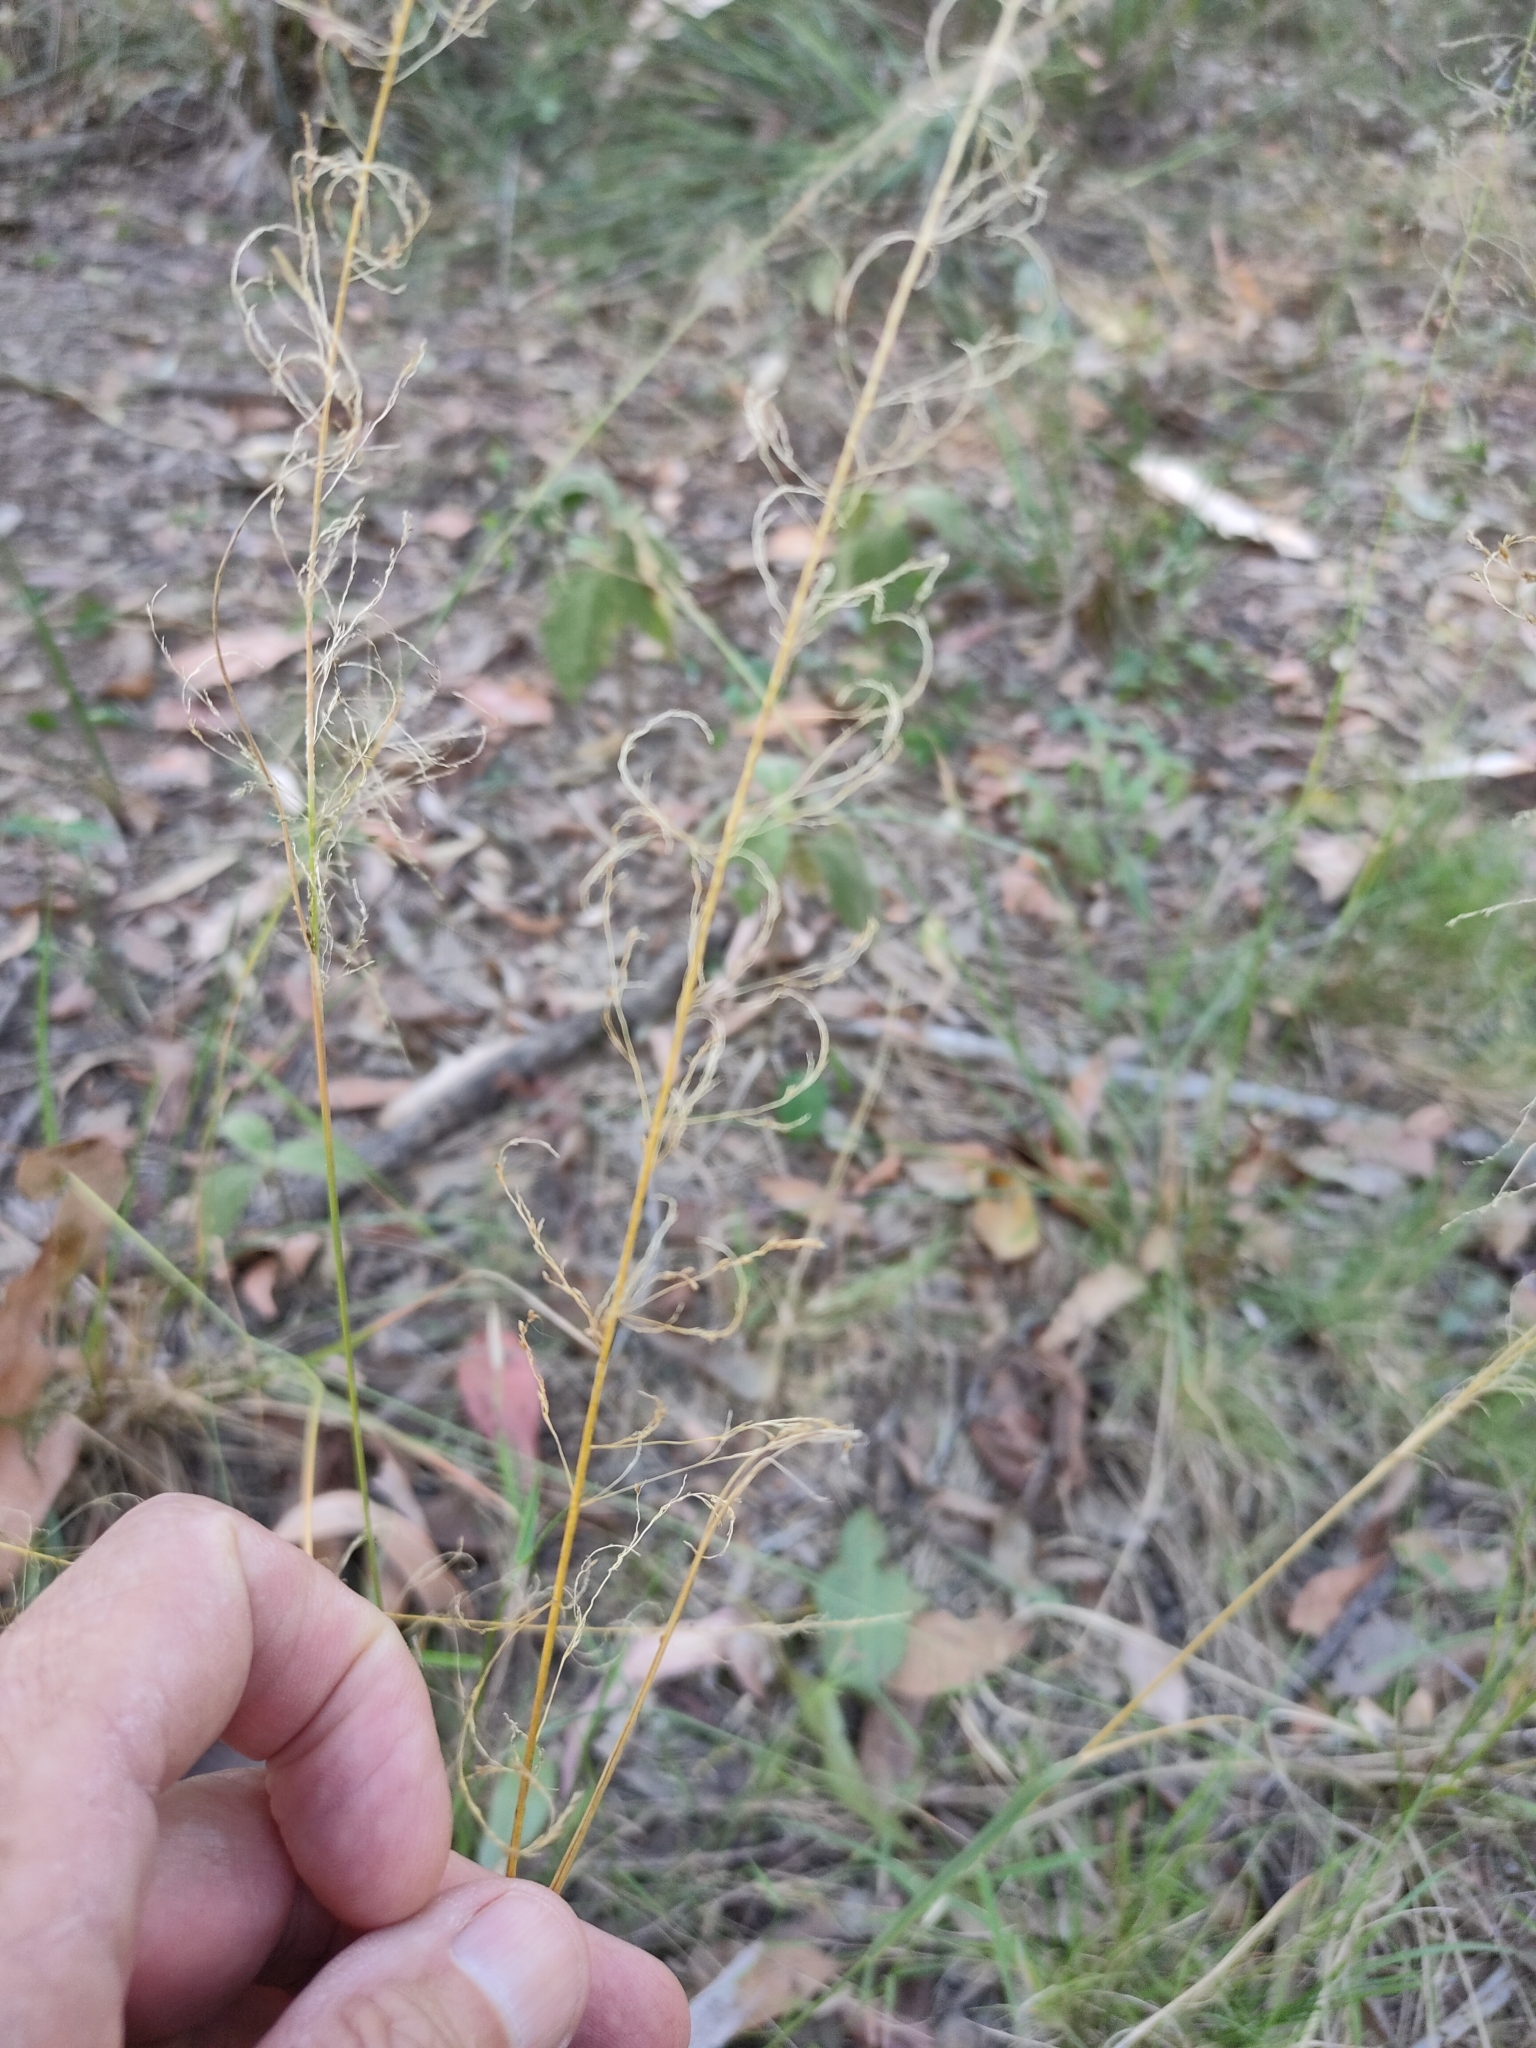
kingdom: Plantae
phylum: Tracheophyta
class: Liliopsida
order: Poales
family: Poaceae
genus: Sporobolus
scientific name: Sporobolus laxus
